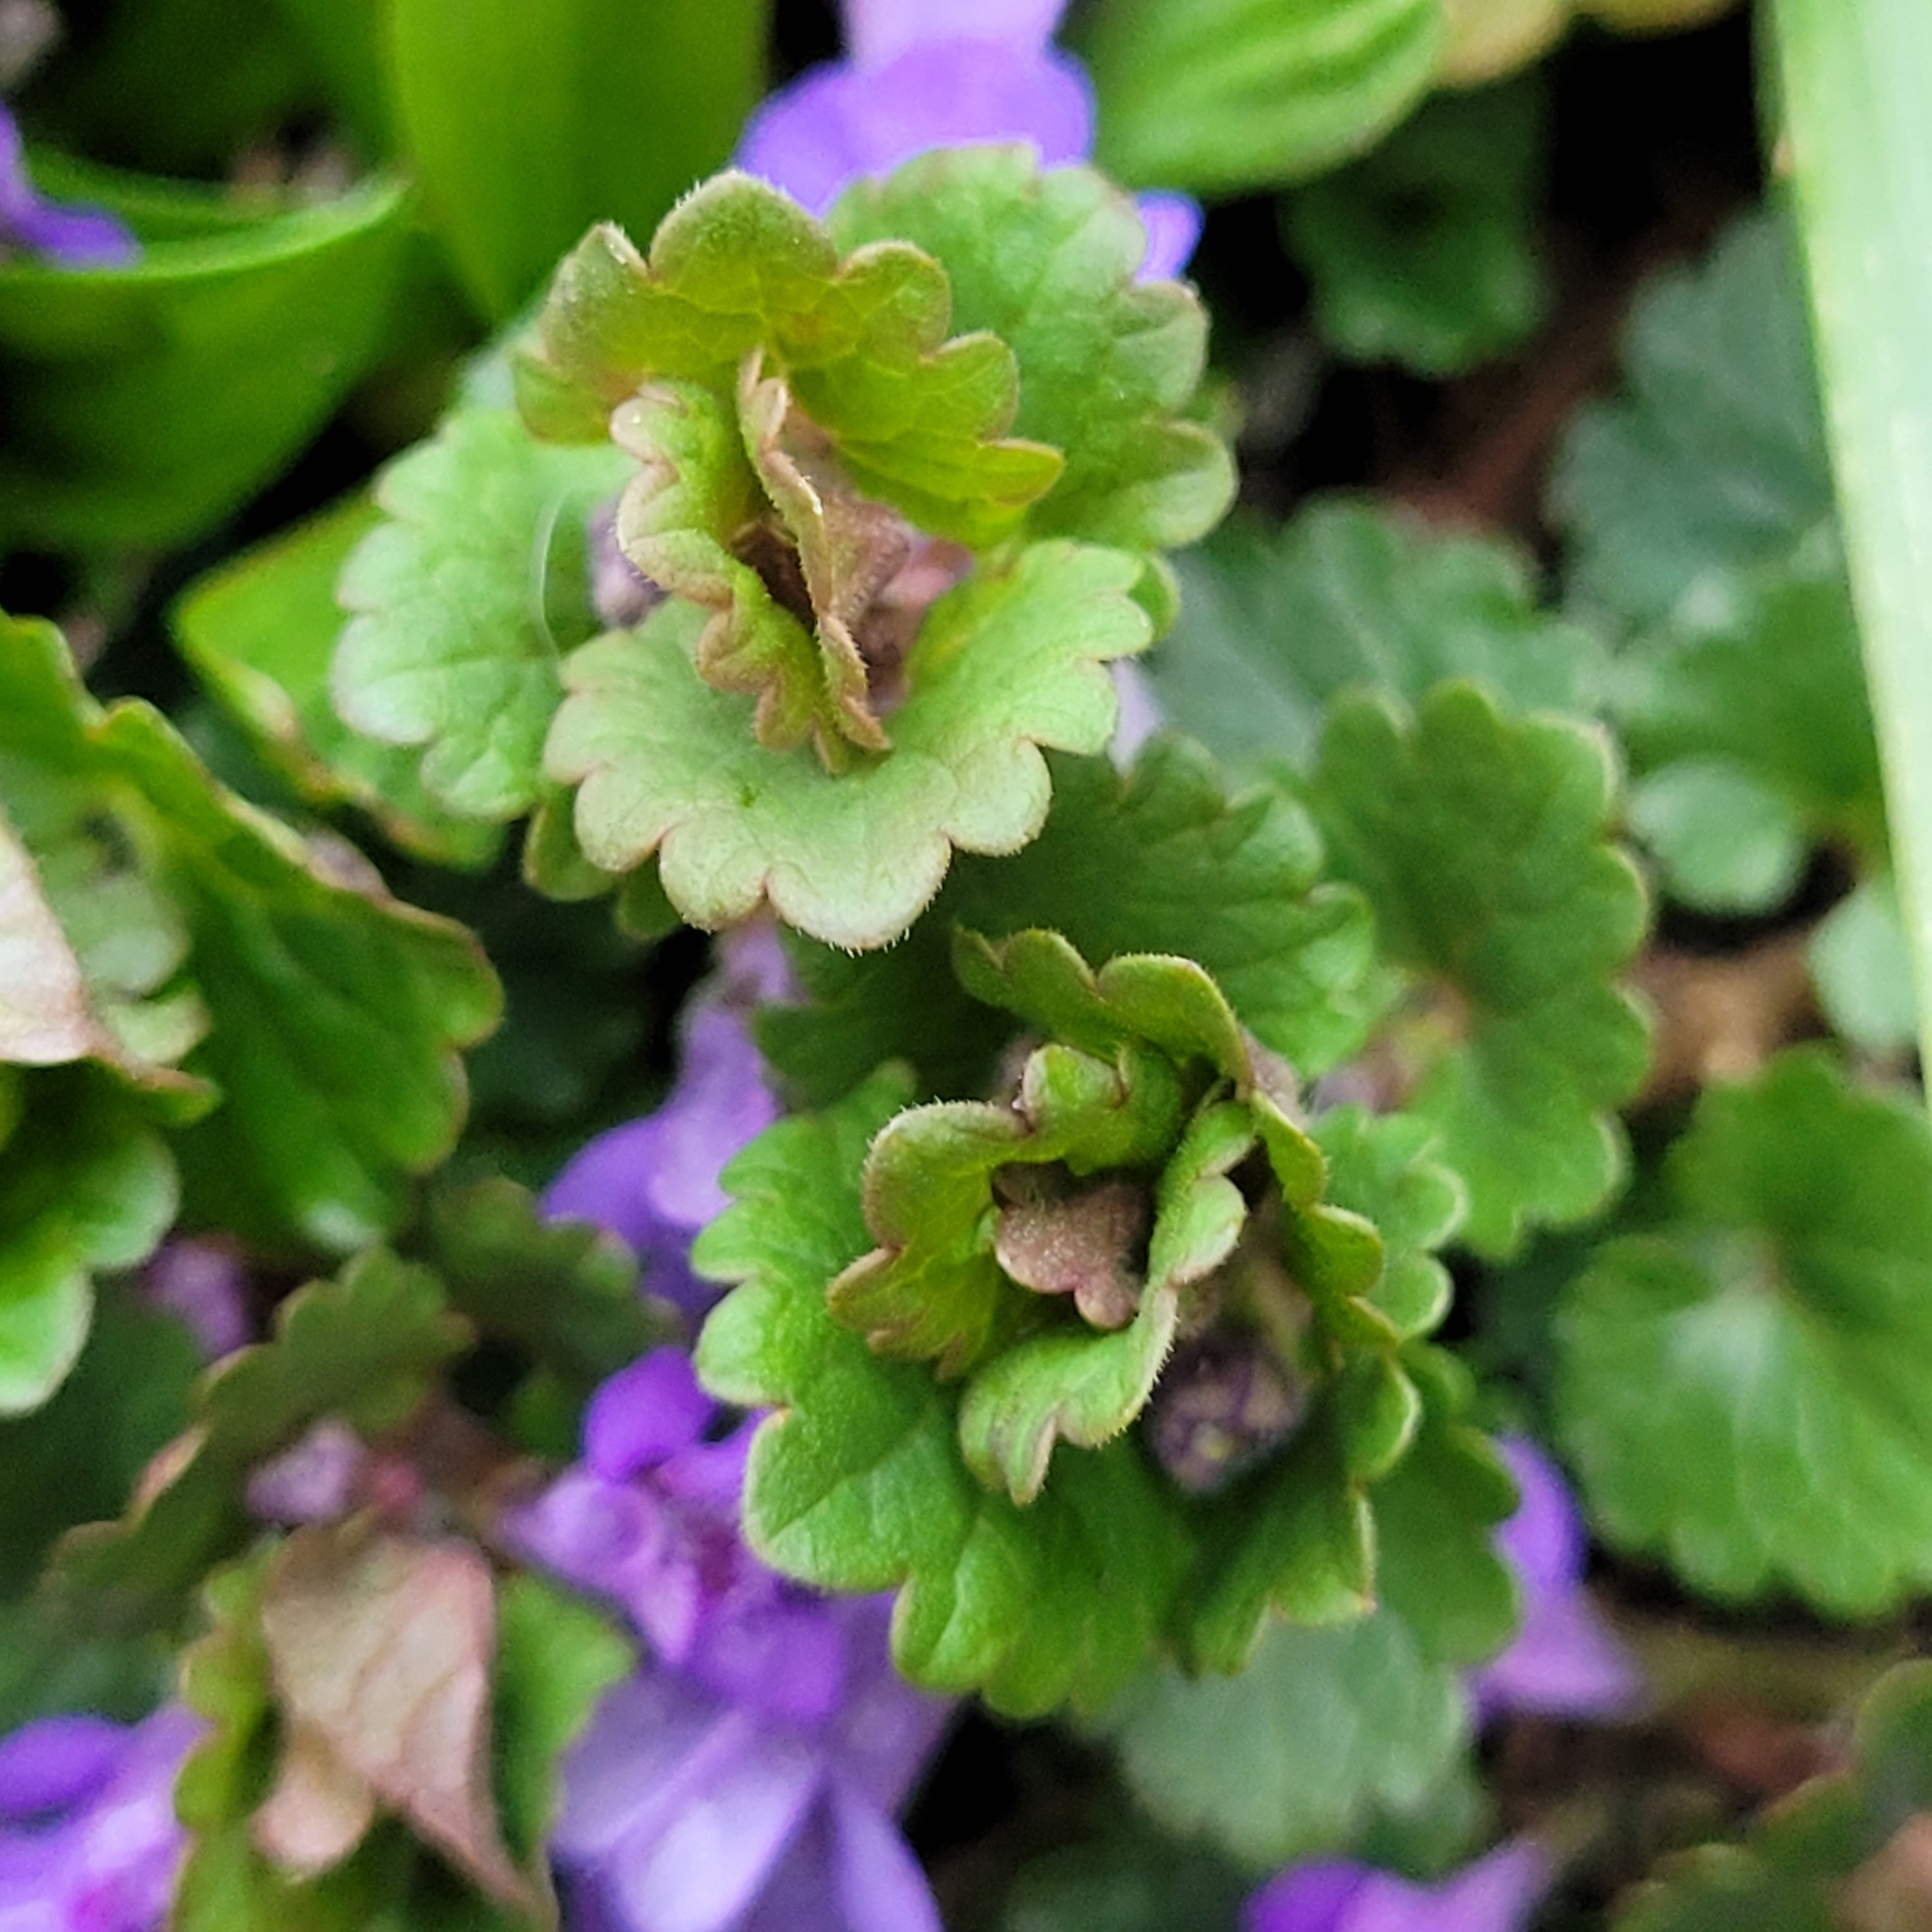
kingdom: Plantae
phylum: Tracheophyta
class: Magnoliopsida
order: Lamiales
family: Lamiaceae
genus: Glechoma
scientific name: Glechoma hederacea
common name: Ground ivy
